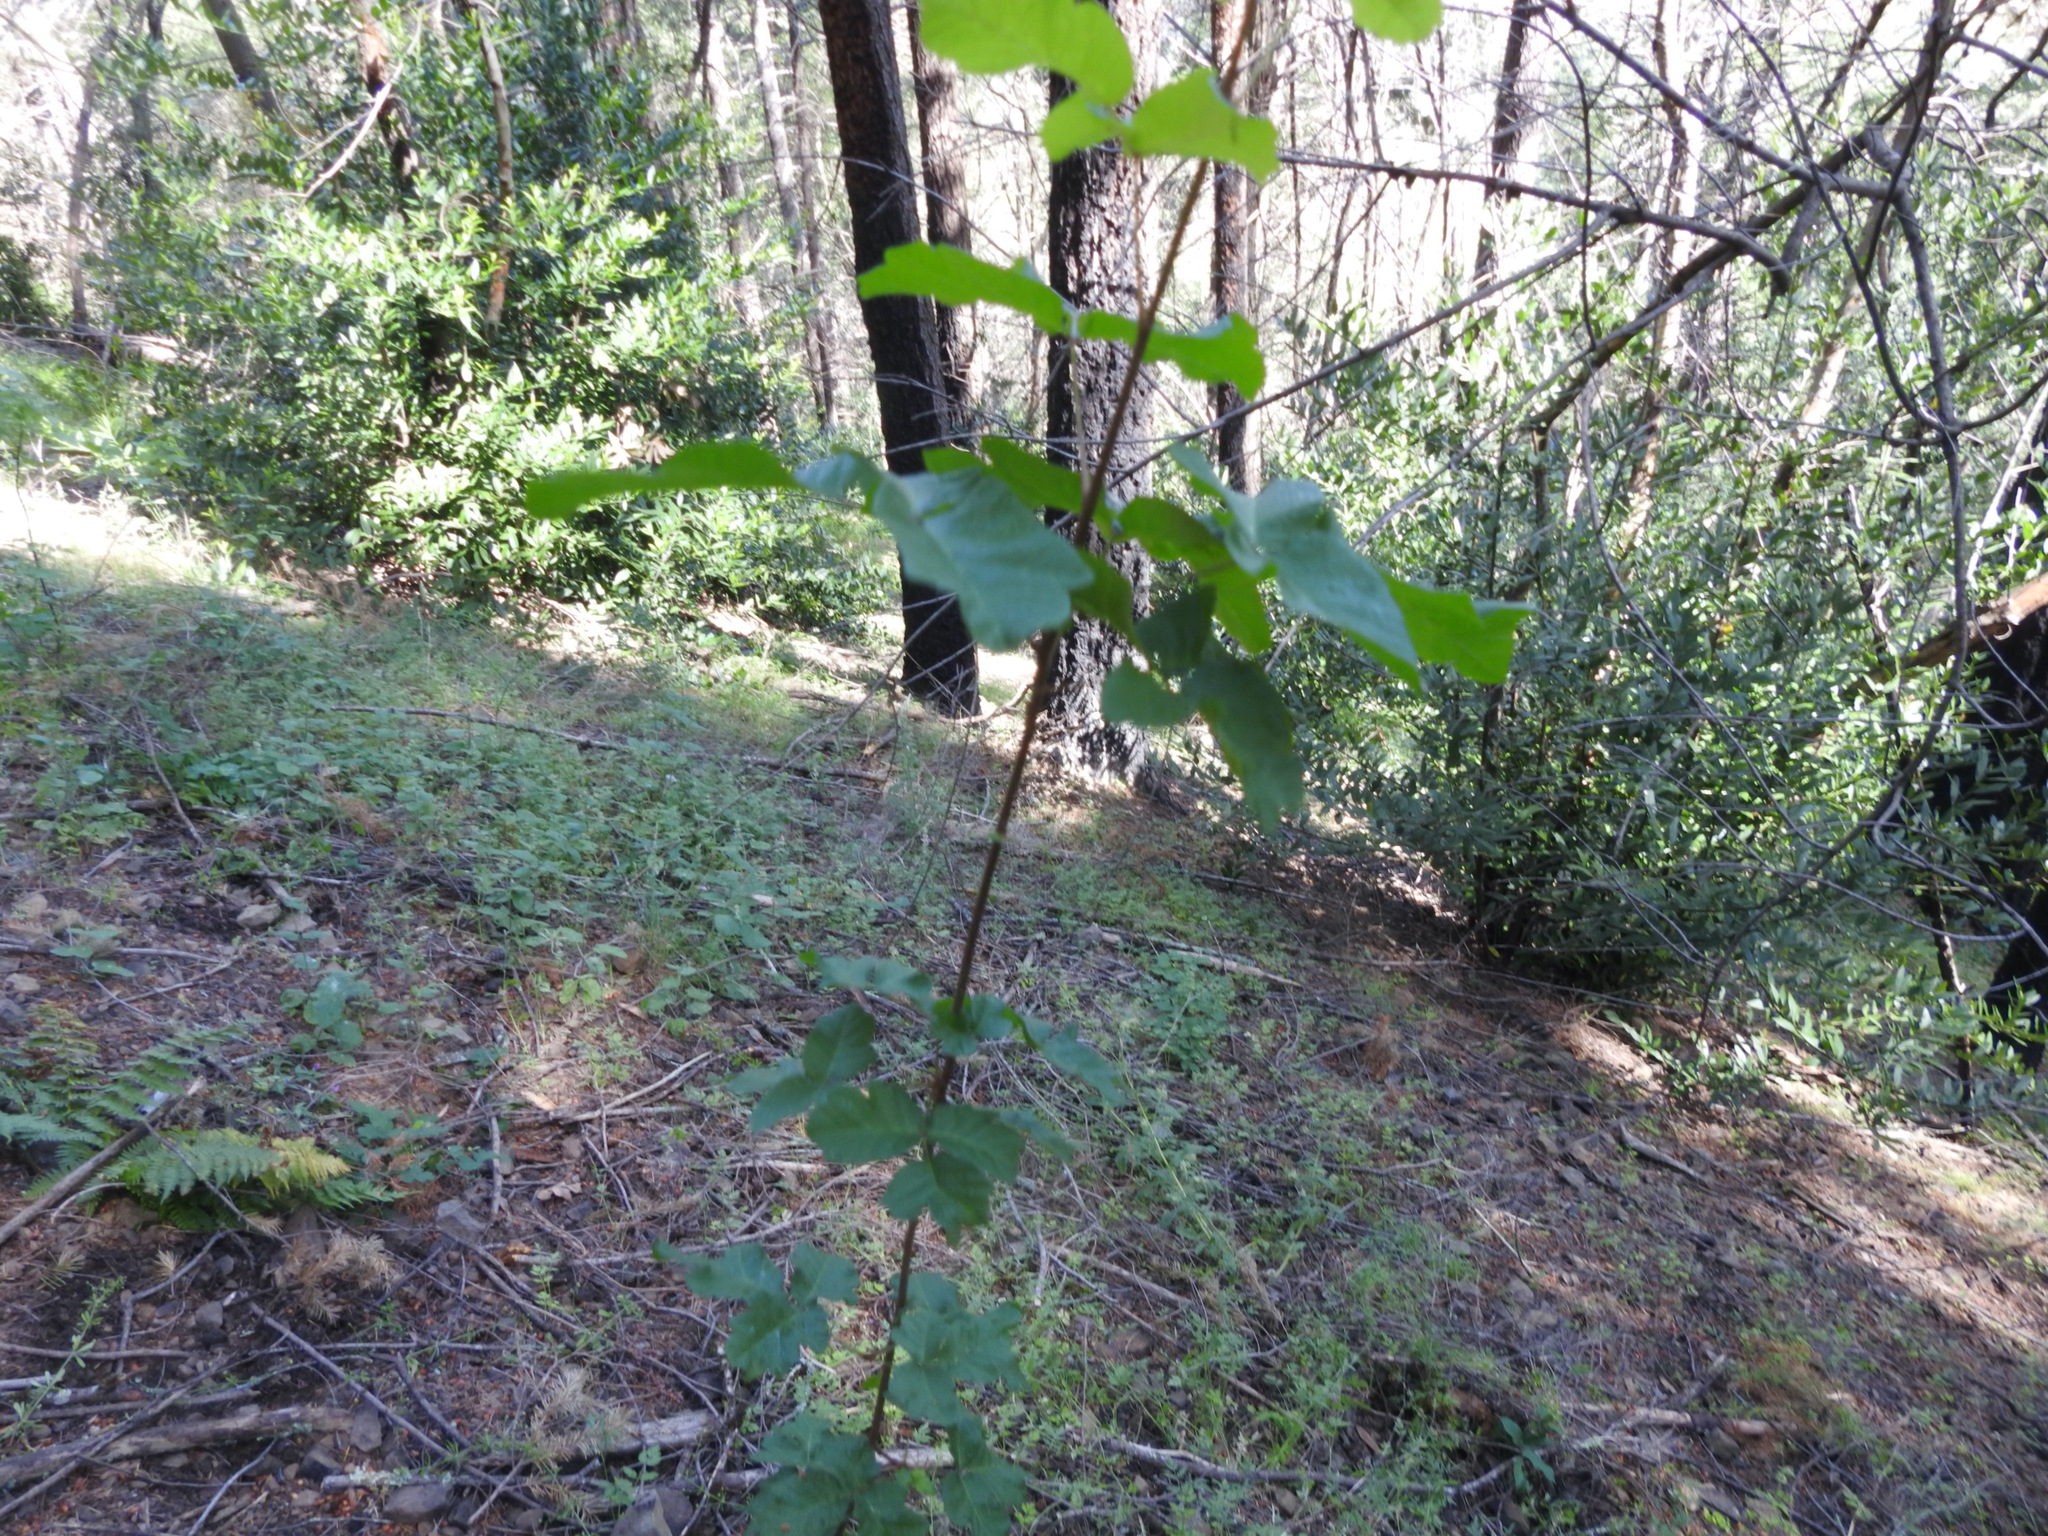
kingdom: Plantae
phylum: Tracheophyta
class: Magnoliopsida
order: Sapindales
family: Anacardiaceae
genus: Toxicodendron
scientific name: Toxicodendron diversilobum
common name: Pacific poison-oak
